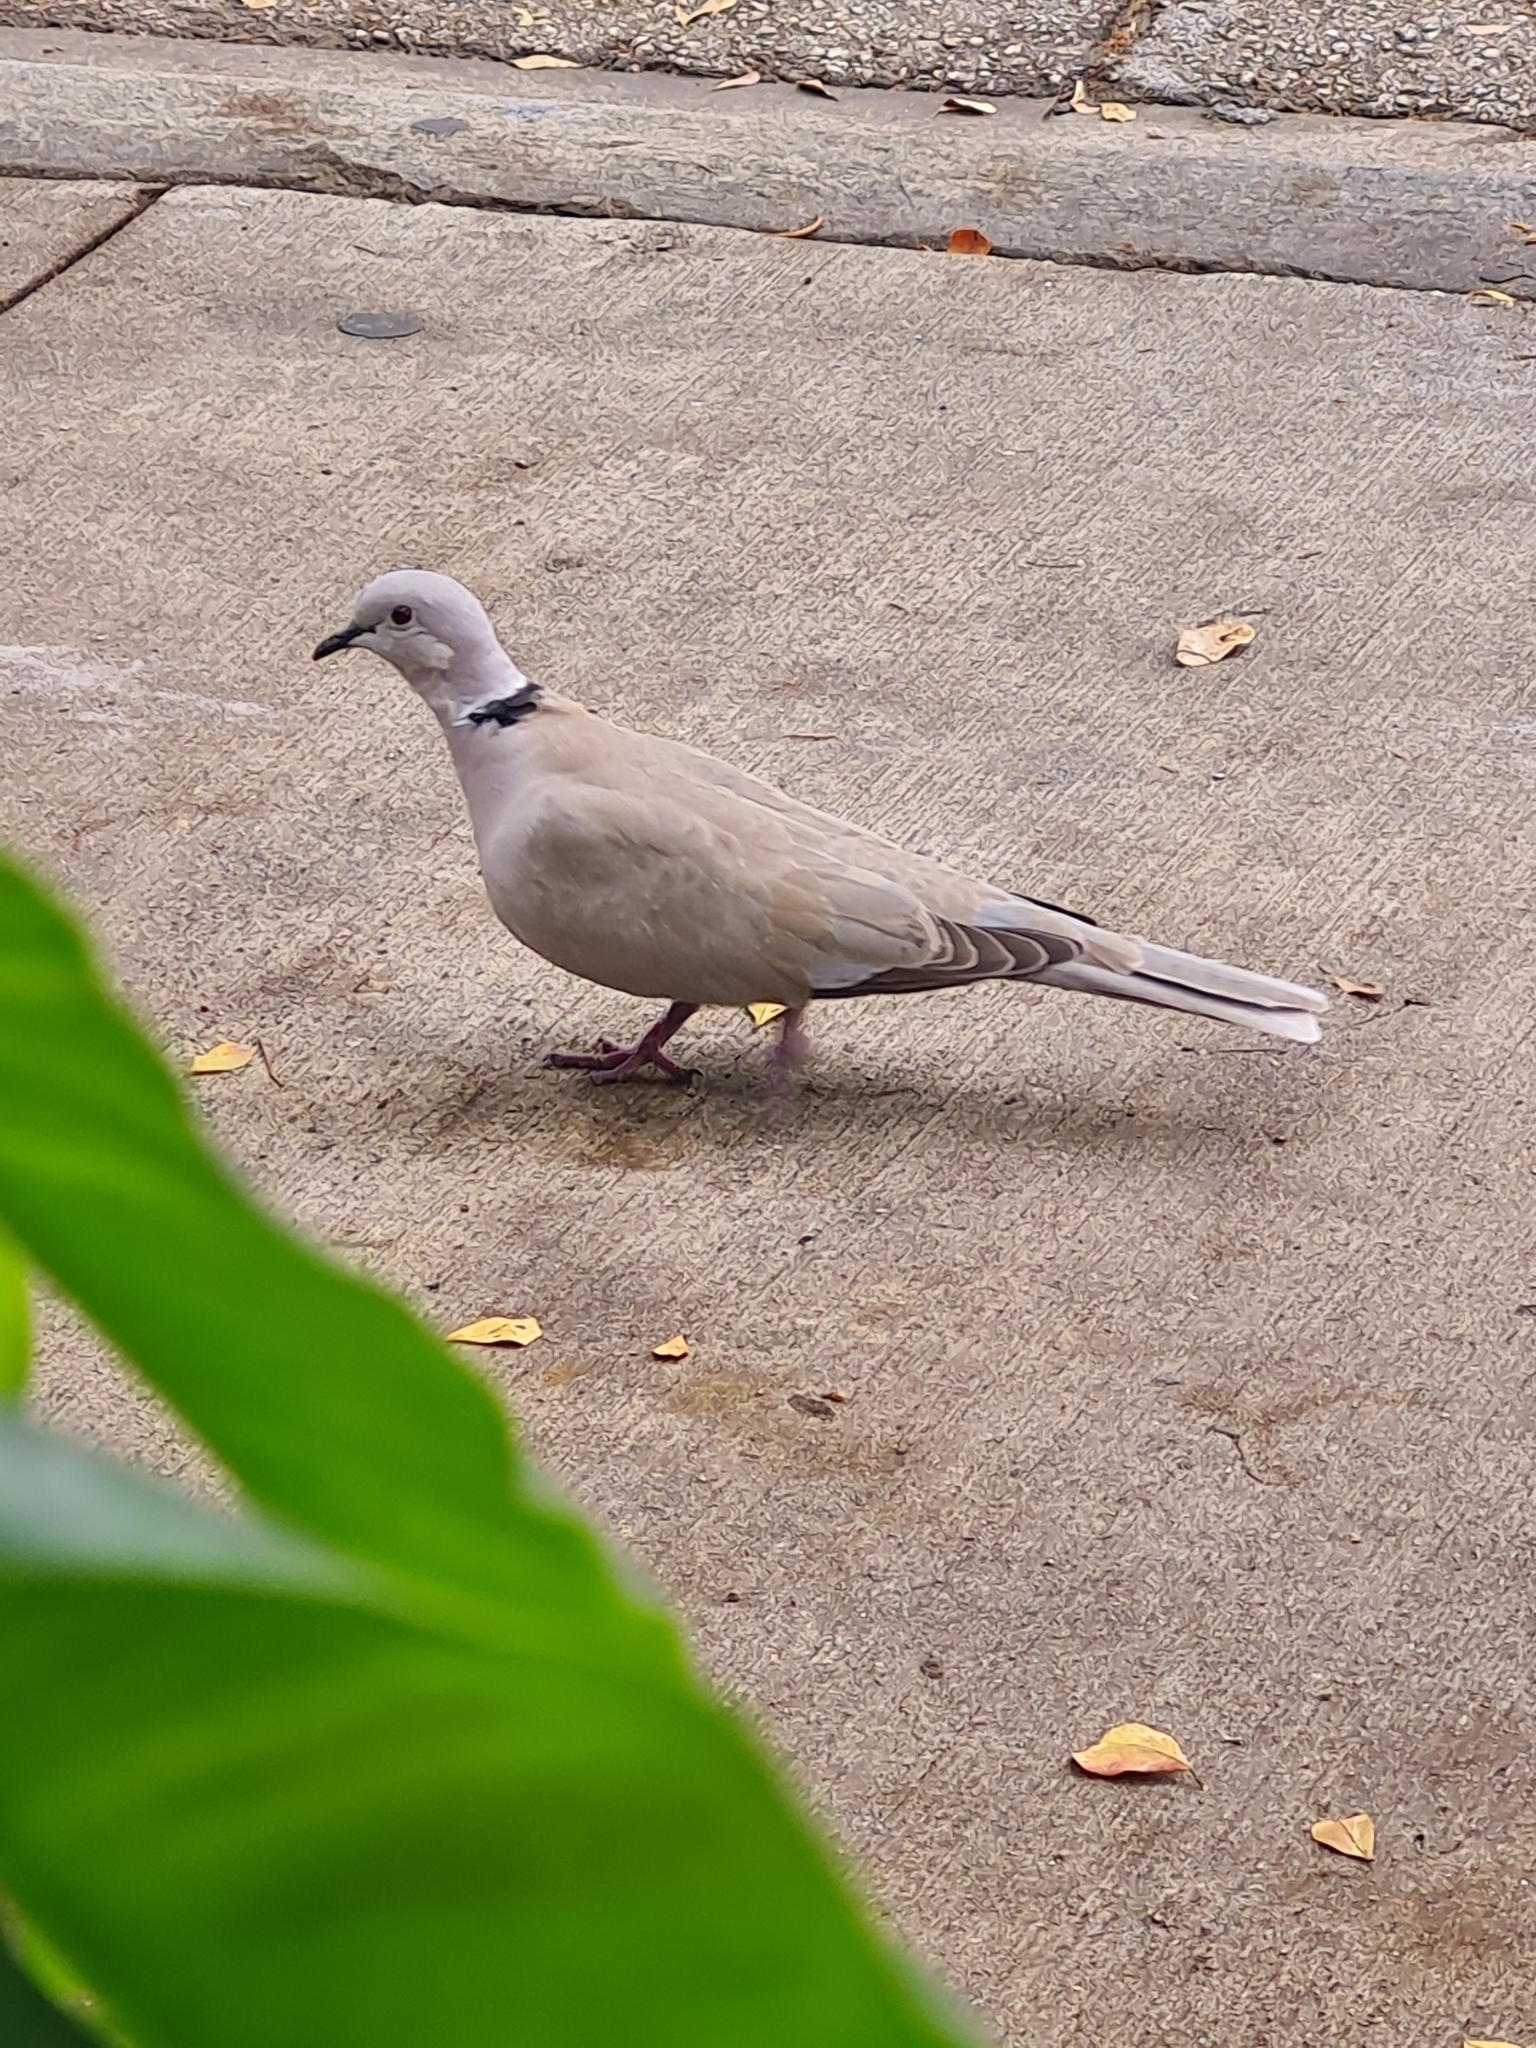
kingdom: Animalia
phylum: Chordata
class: Aves
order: Columbiformes
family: Columbidae
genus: Streptopelia
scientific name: Streptopelia decaocto
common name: Eurasian collared dove
